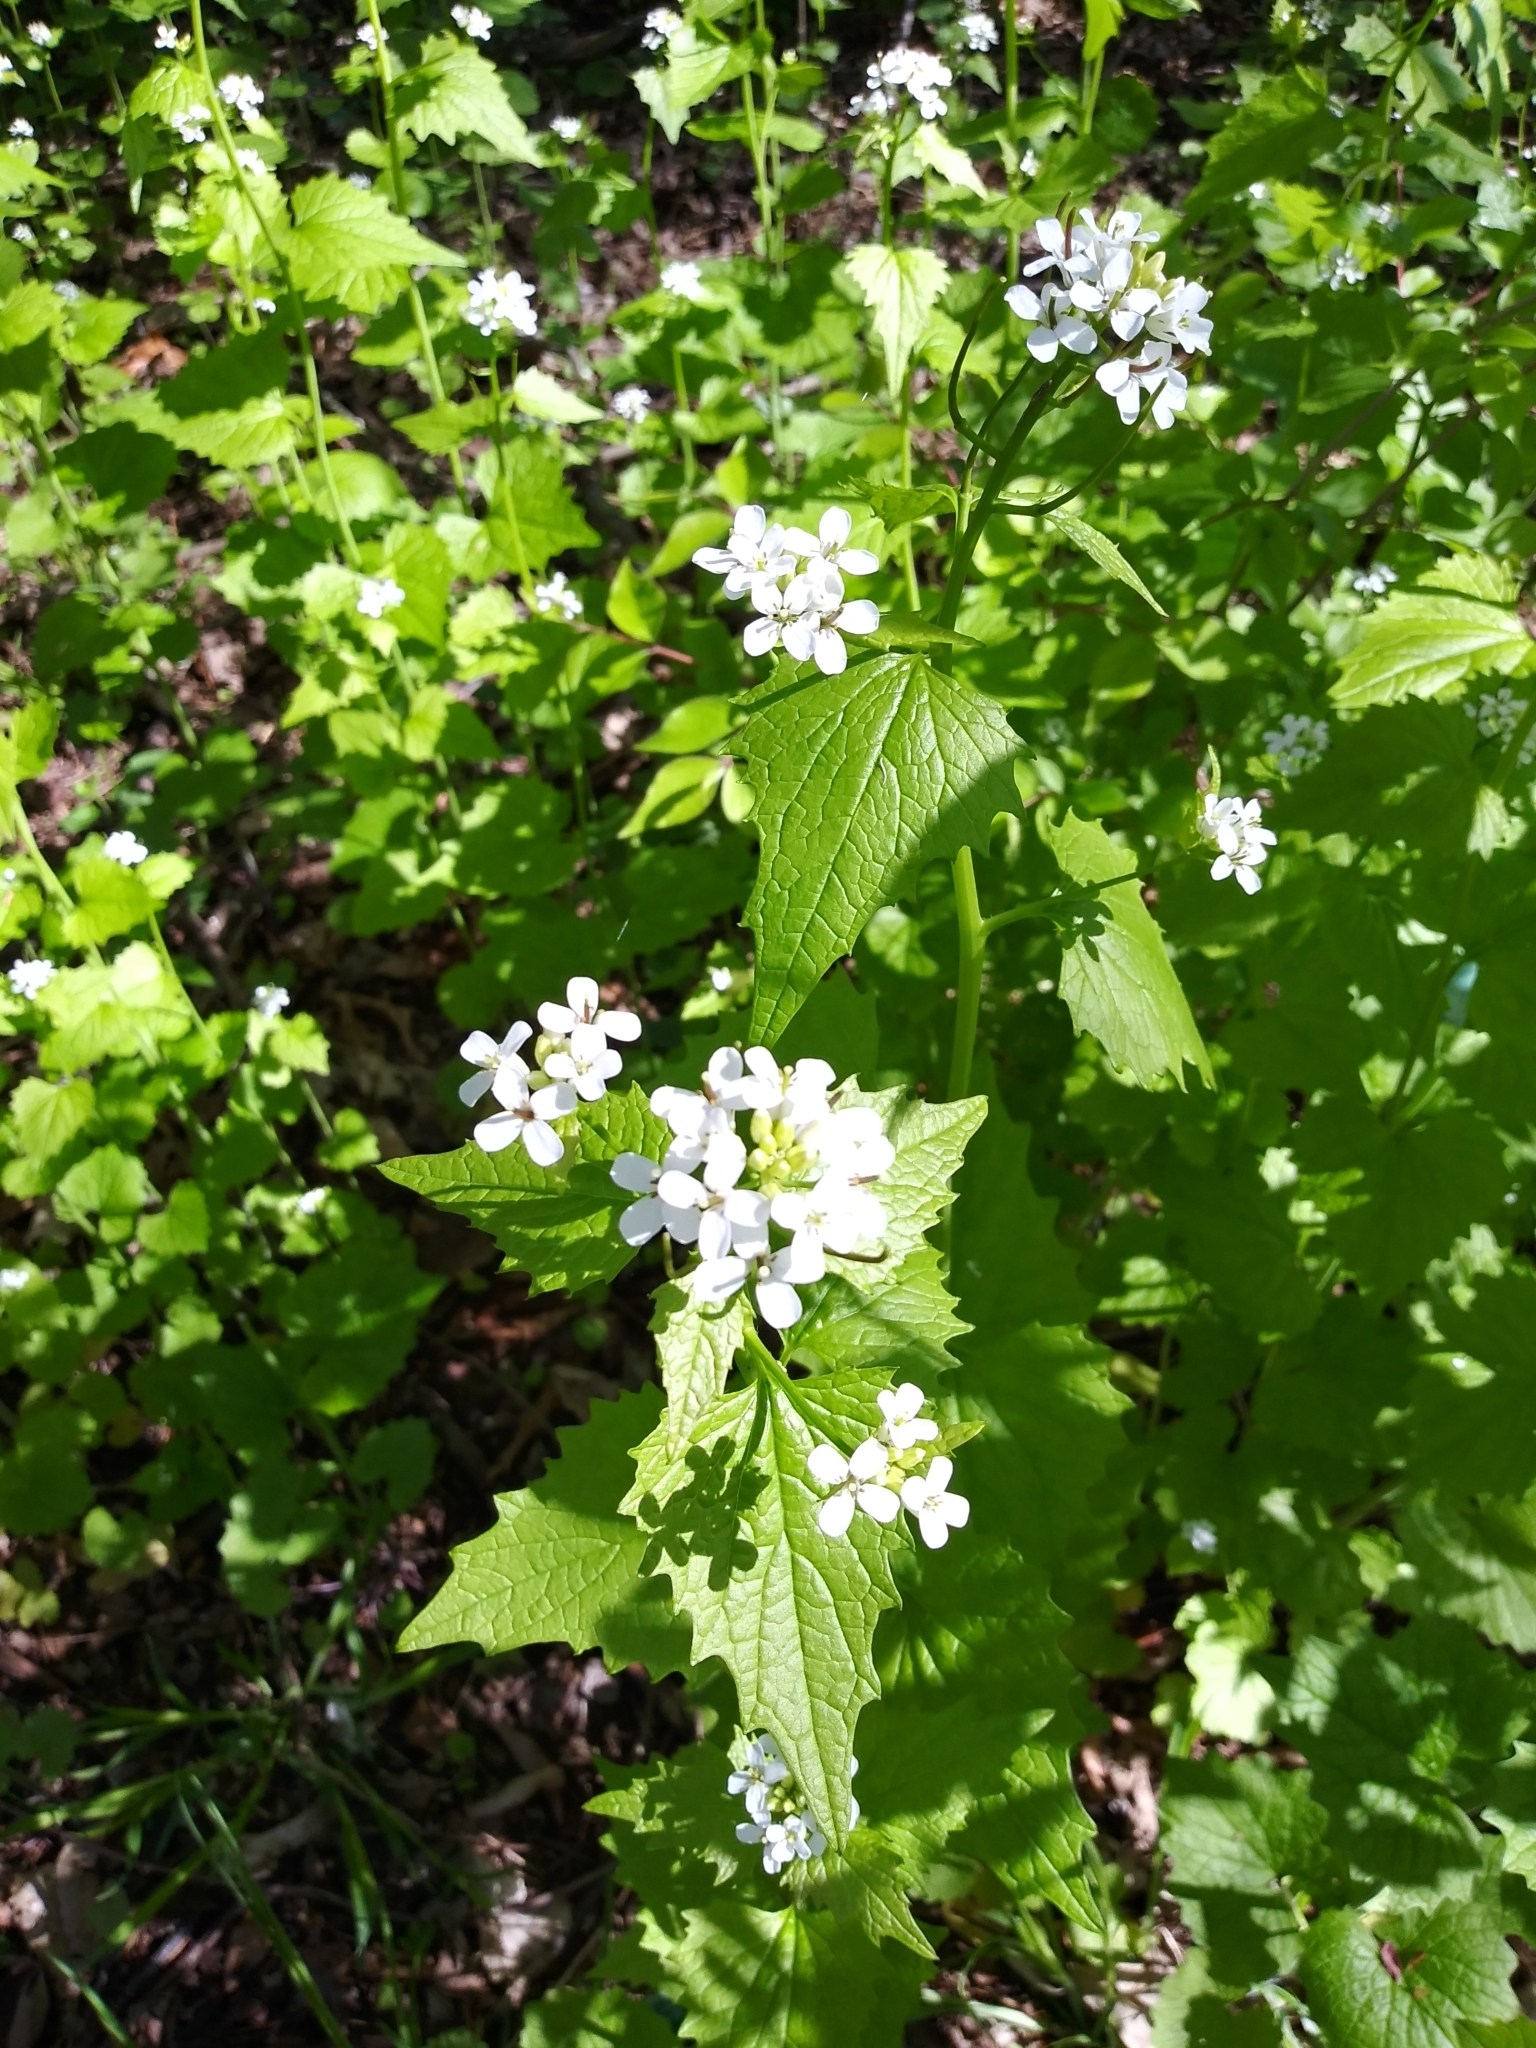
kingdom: Plantae
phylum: Tracheophyta
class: Magnoliopsida
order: Brassicales
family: Brassicaceae
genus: Alliaria
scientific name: Alliaria petiolata
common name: Garlic mustard
